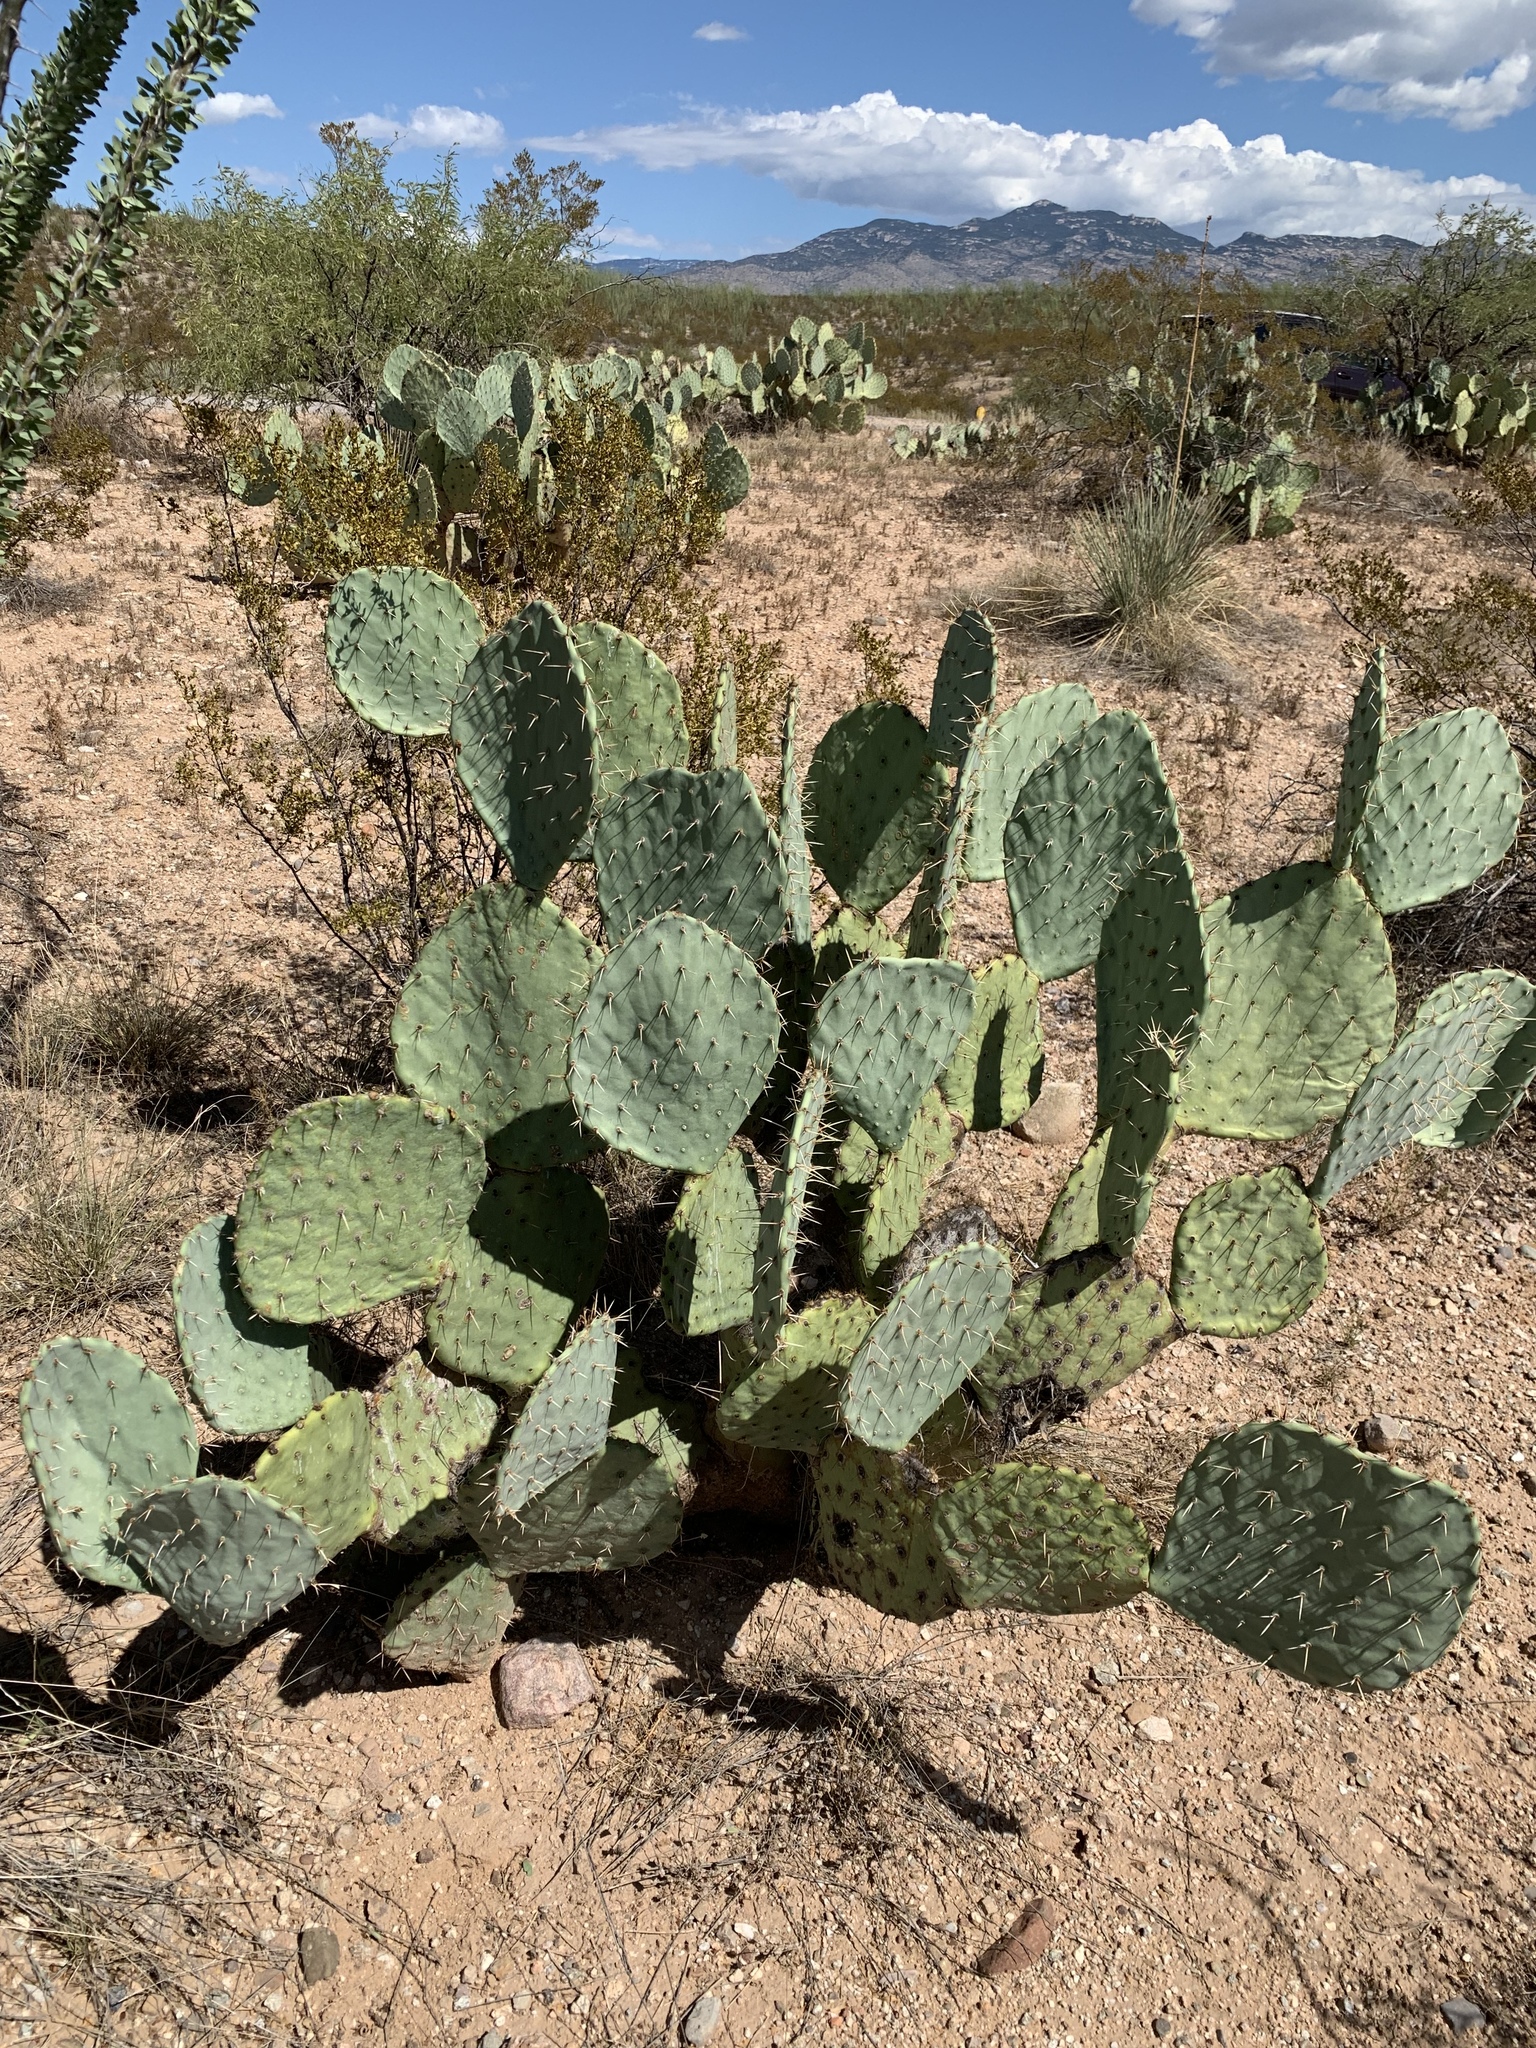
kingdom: Plantae
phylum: Tracheophyta
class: Magnoliopsida
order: Caryophyllales
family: Cactaceae
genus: Opuntia
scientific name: Opuntia engelmannii
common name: Cactus-apple
